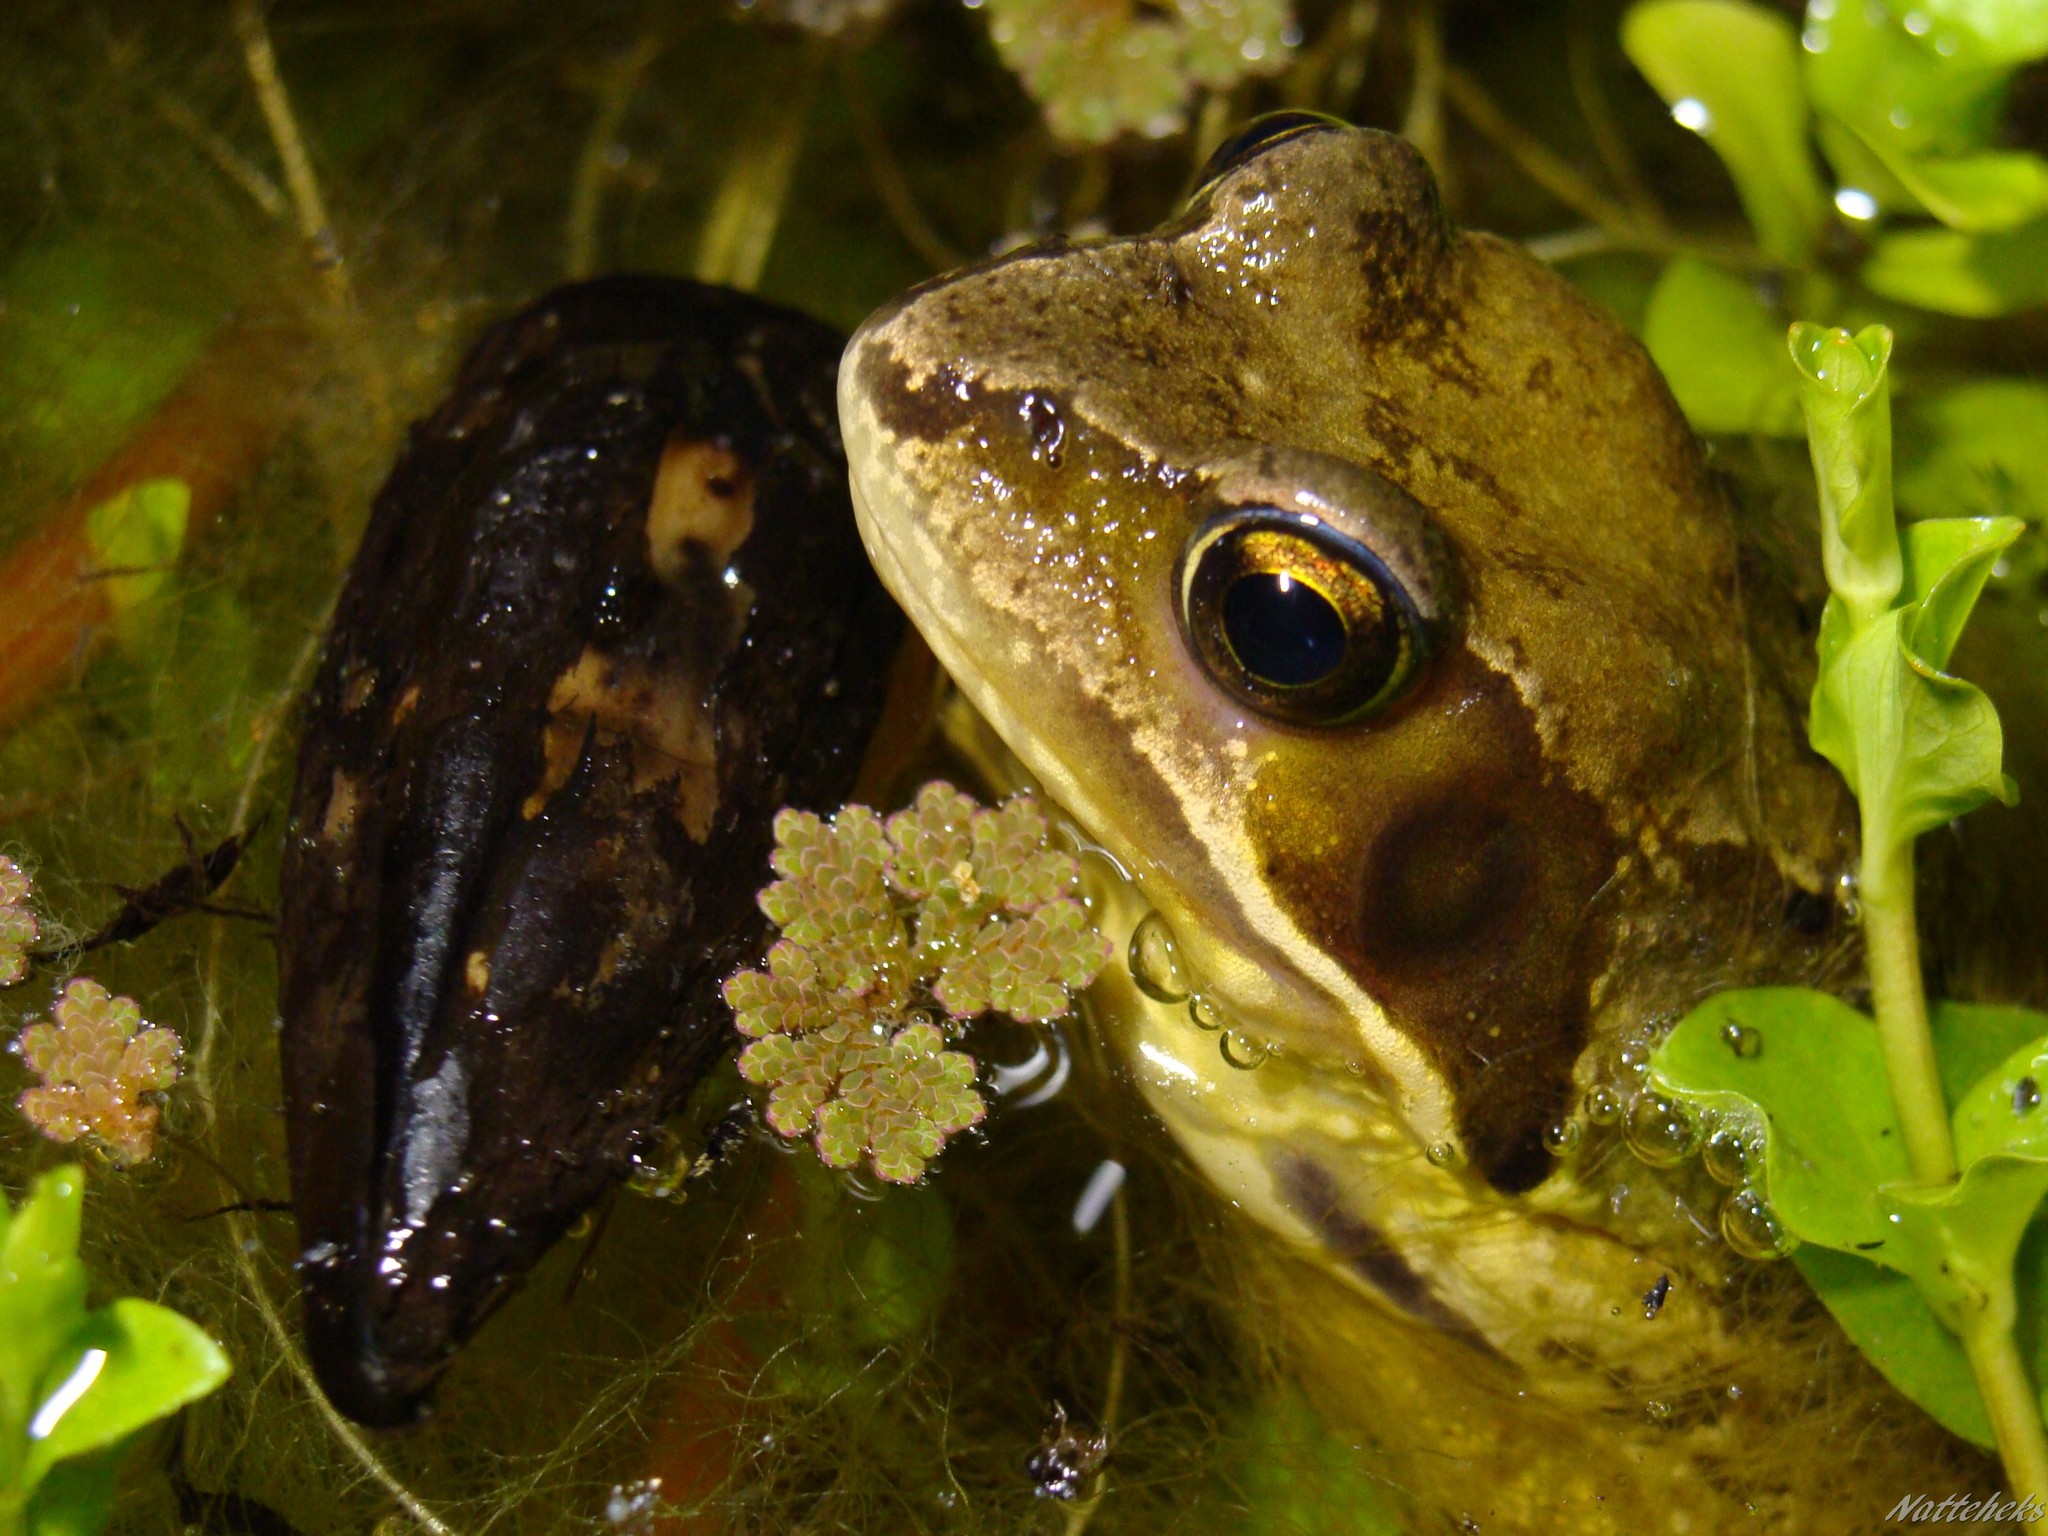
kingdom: Animalia
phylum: Chordata
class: Amphibia
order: Anura
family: Ranidae
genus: Rana
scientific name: Rana temporaria
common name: Common frog
